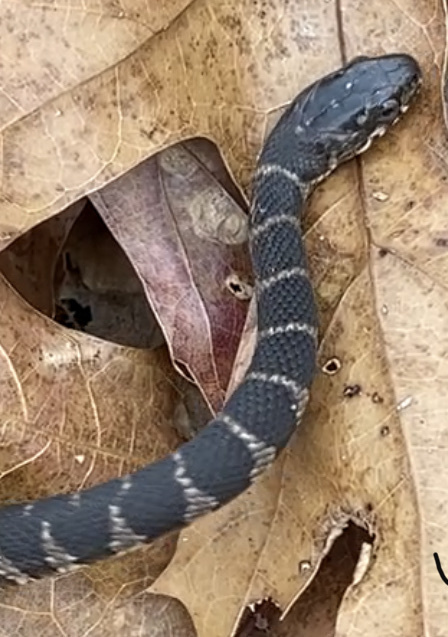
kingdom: Animalia
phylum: Chordata
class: Squamata
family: Colubridae
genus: Nerodia
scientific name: Nerodia sipedon
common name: Northern water snake
